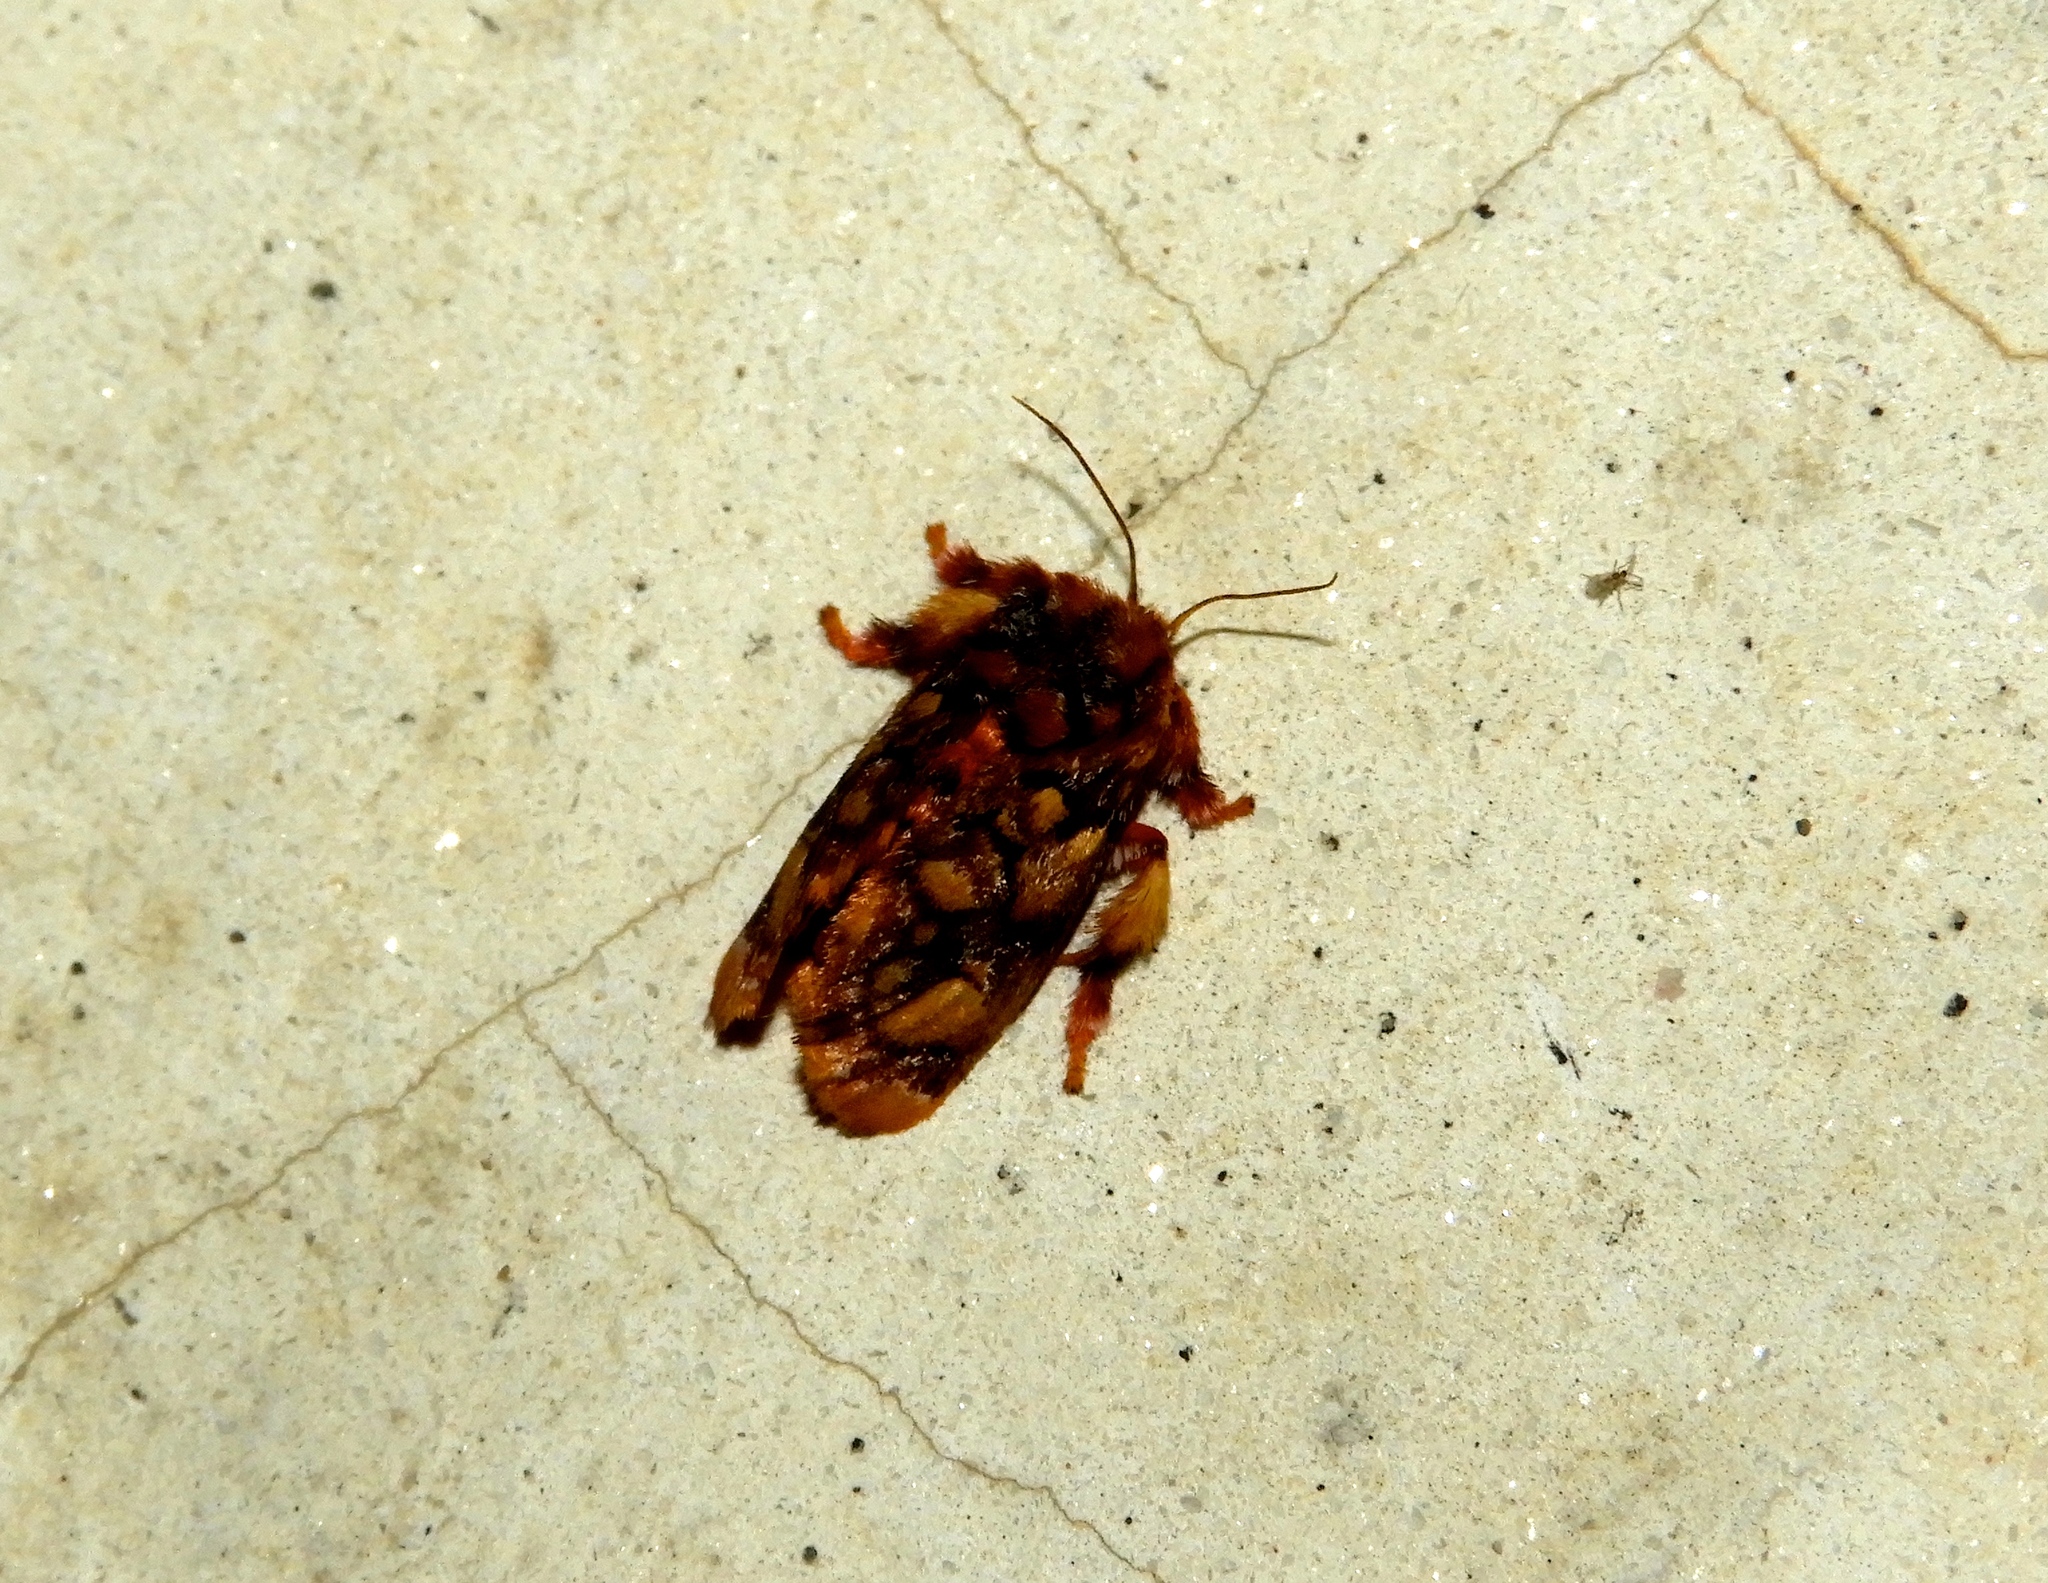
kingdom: Animalia
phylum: Arthropoda
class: Insecta
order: Lepidoptera
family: Limacodidae
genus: Phobetron
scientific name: Phobetron
